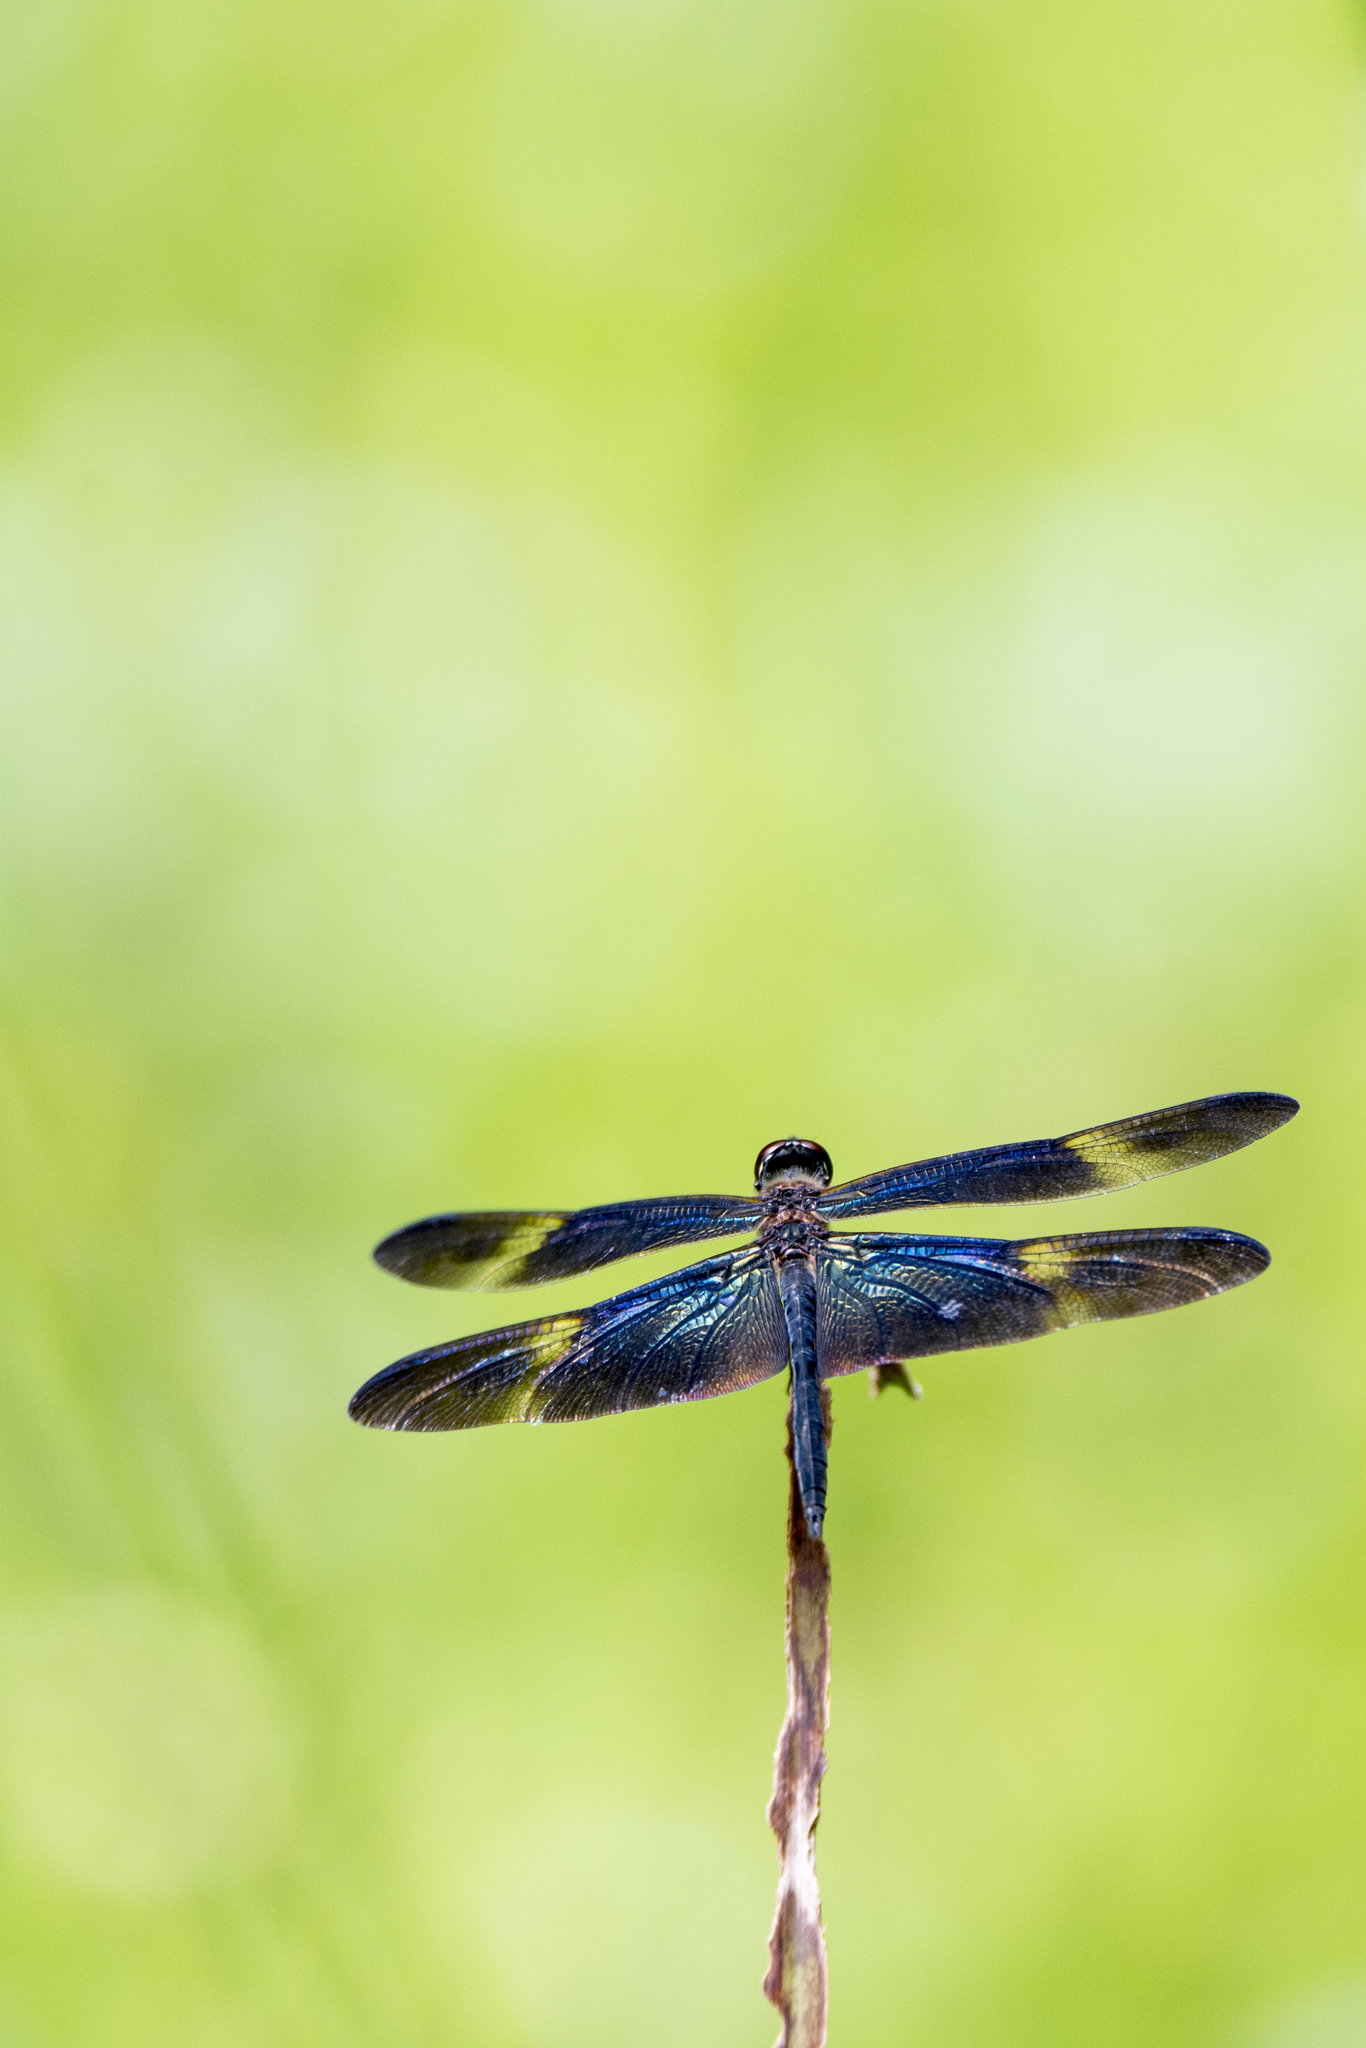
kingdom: Animalia
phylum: Arthropoda
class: Insecta
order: Odonata
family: Libellulidae
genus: Rhyothemis
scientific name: Rhyothemis regia
